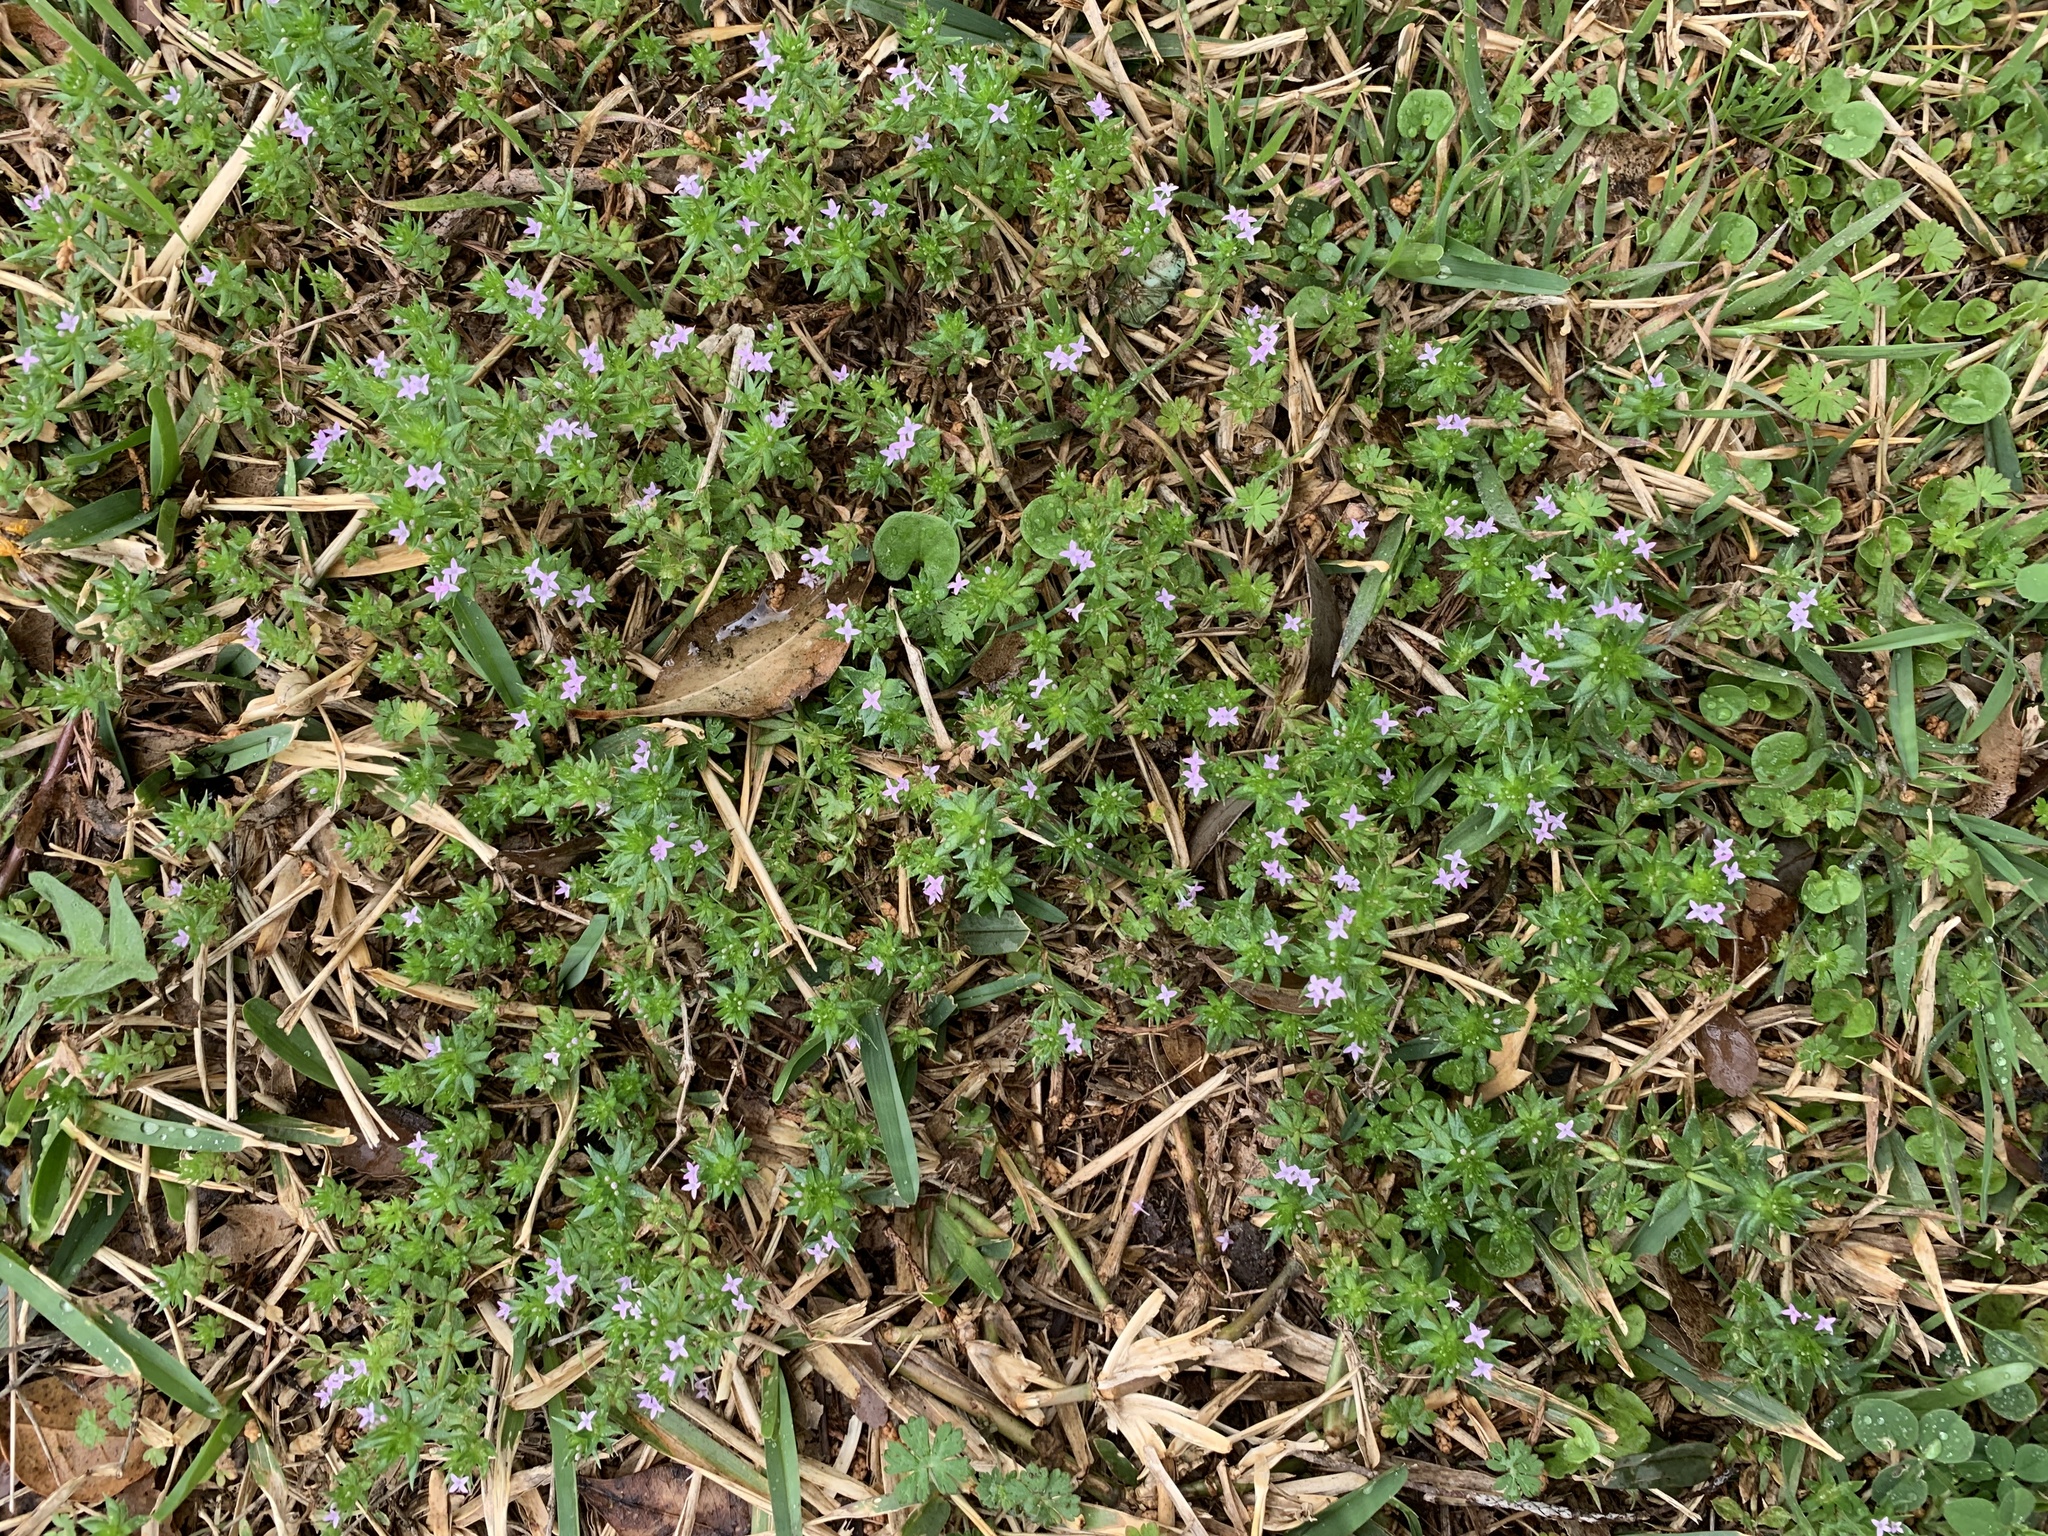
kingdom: Plantae
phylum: Tracheophyta
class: Magnoliopsida
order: Gentianales
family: Rubiaceae
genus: Sherardia
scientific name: Sherardia arvensis
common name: Field madder
